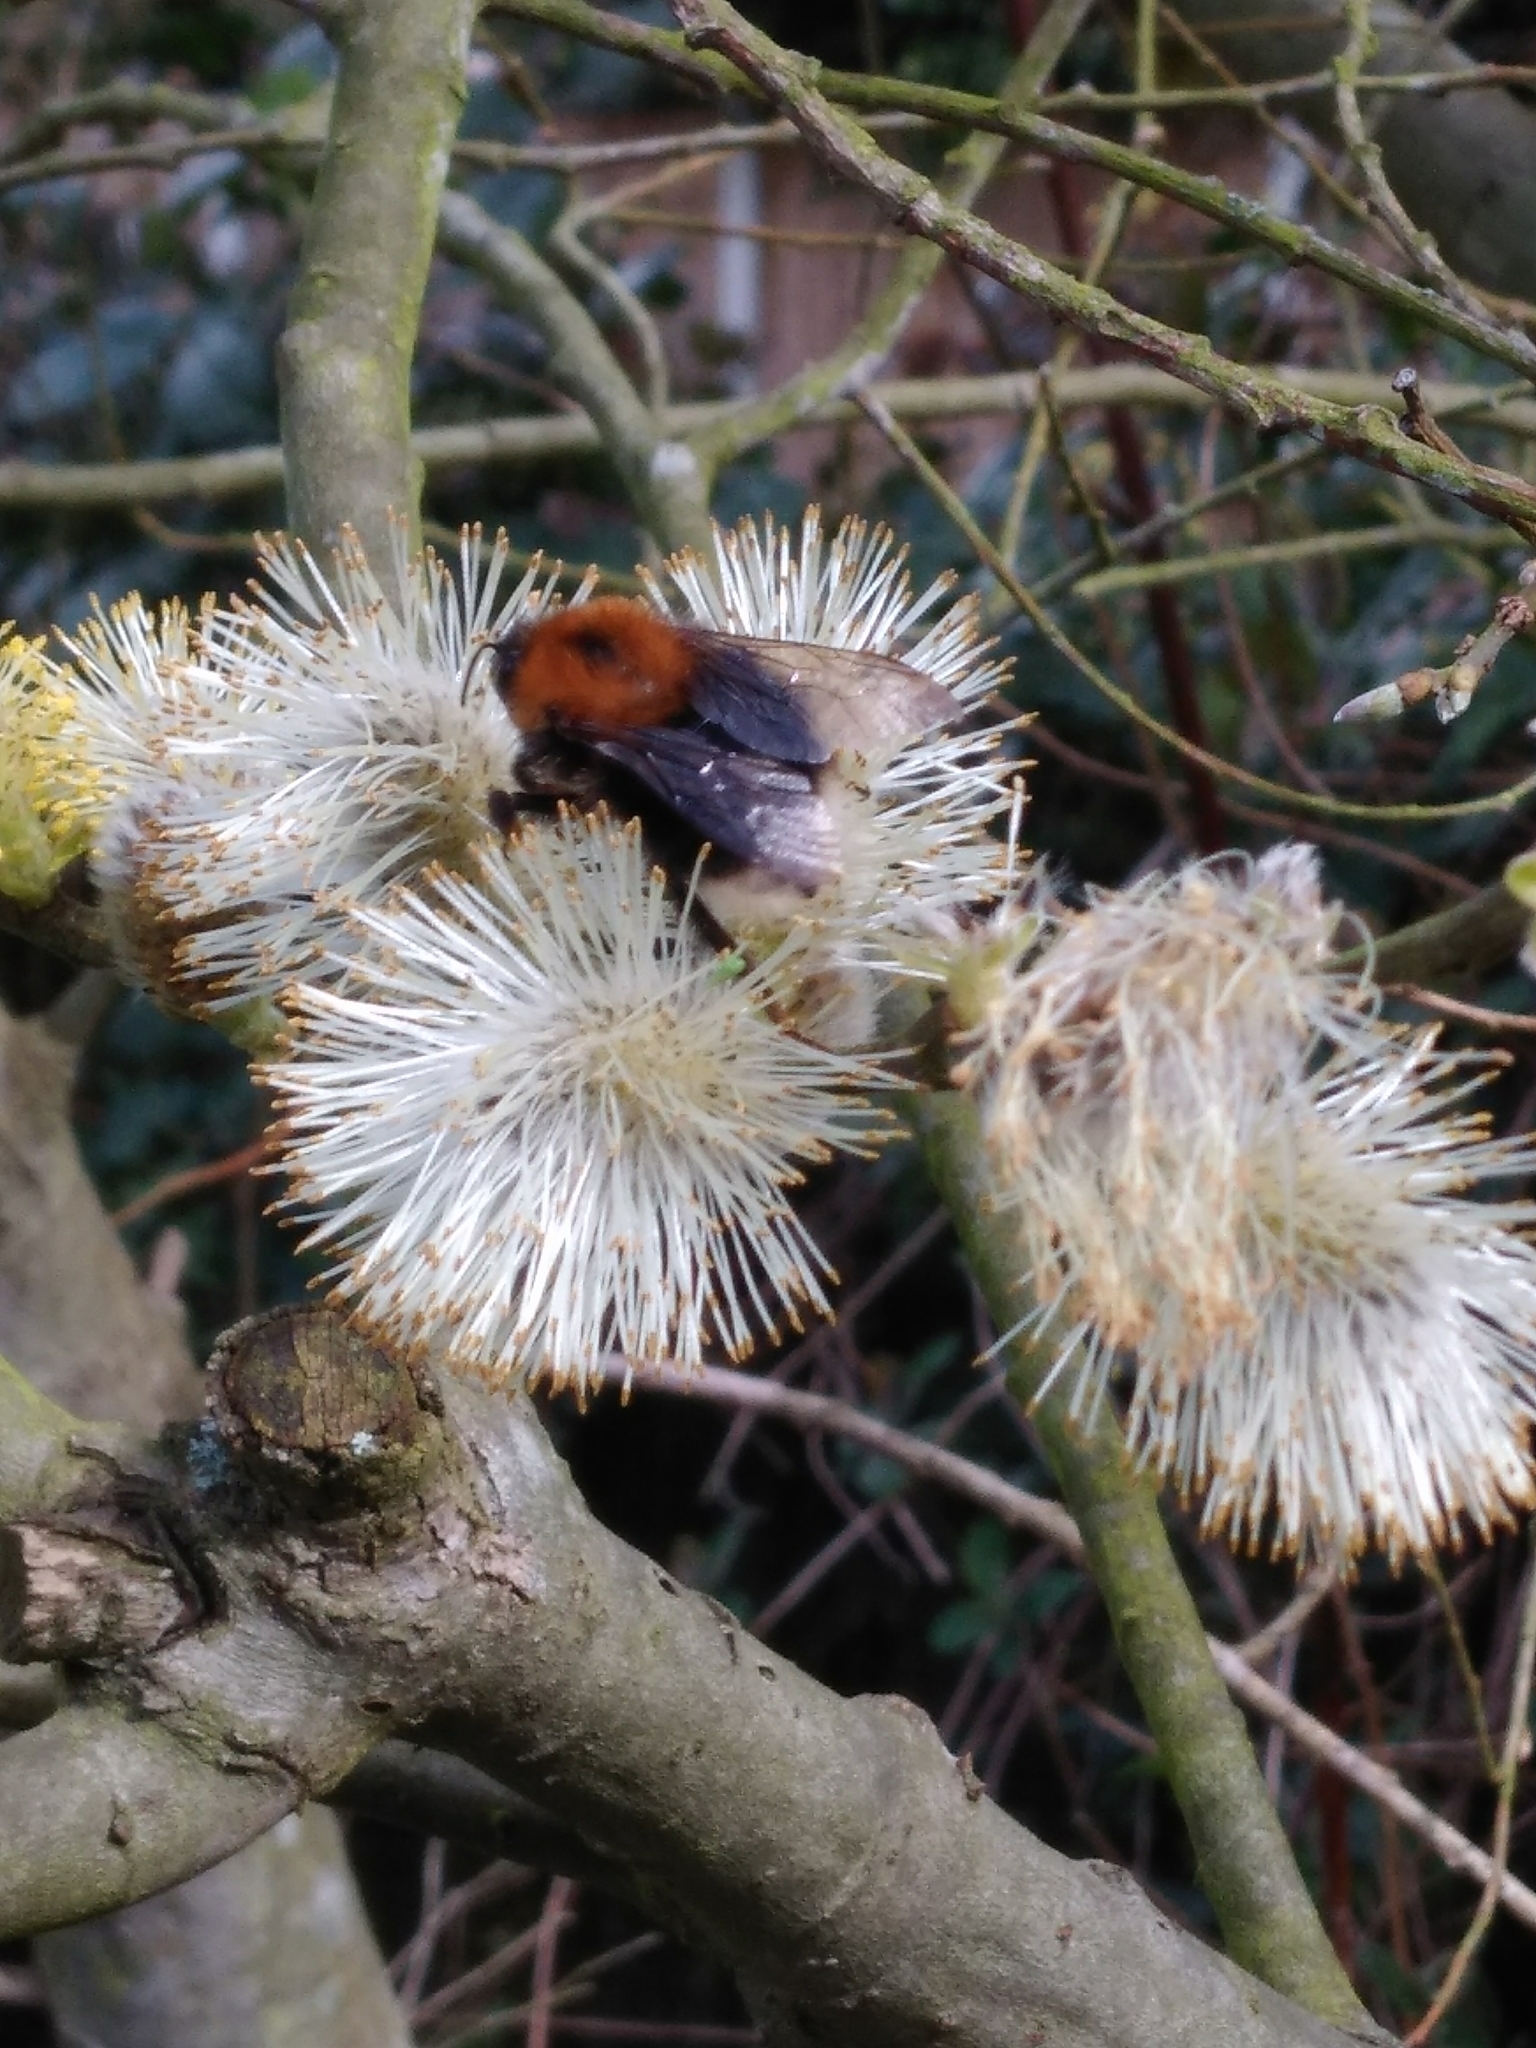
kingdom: Animalia
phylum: Arthropoda
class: Insecta
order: Hymenoptera
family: Apidae
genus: Bombus
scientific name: Bombus hypnorum
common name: New garden bumblebee
